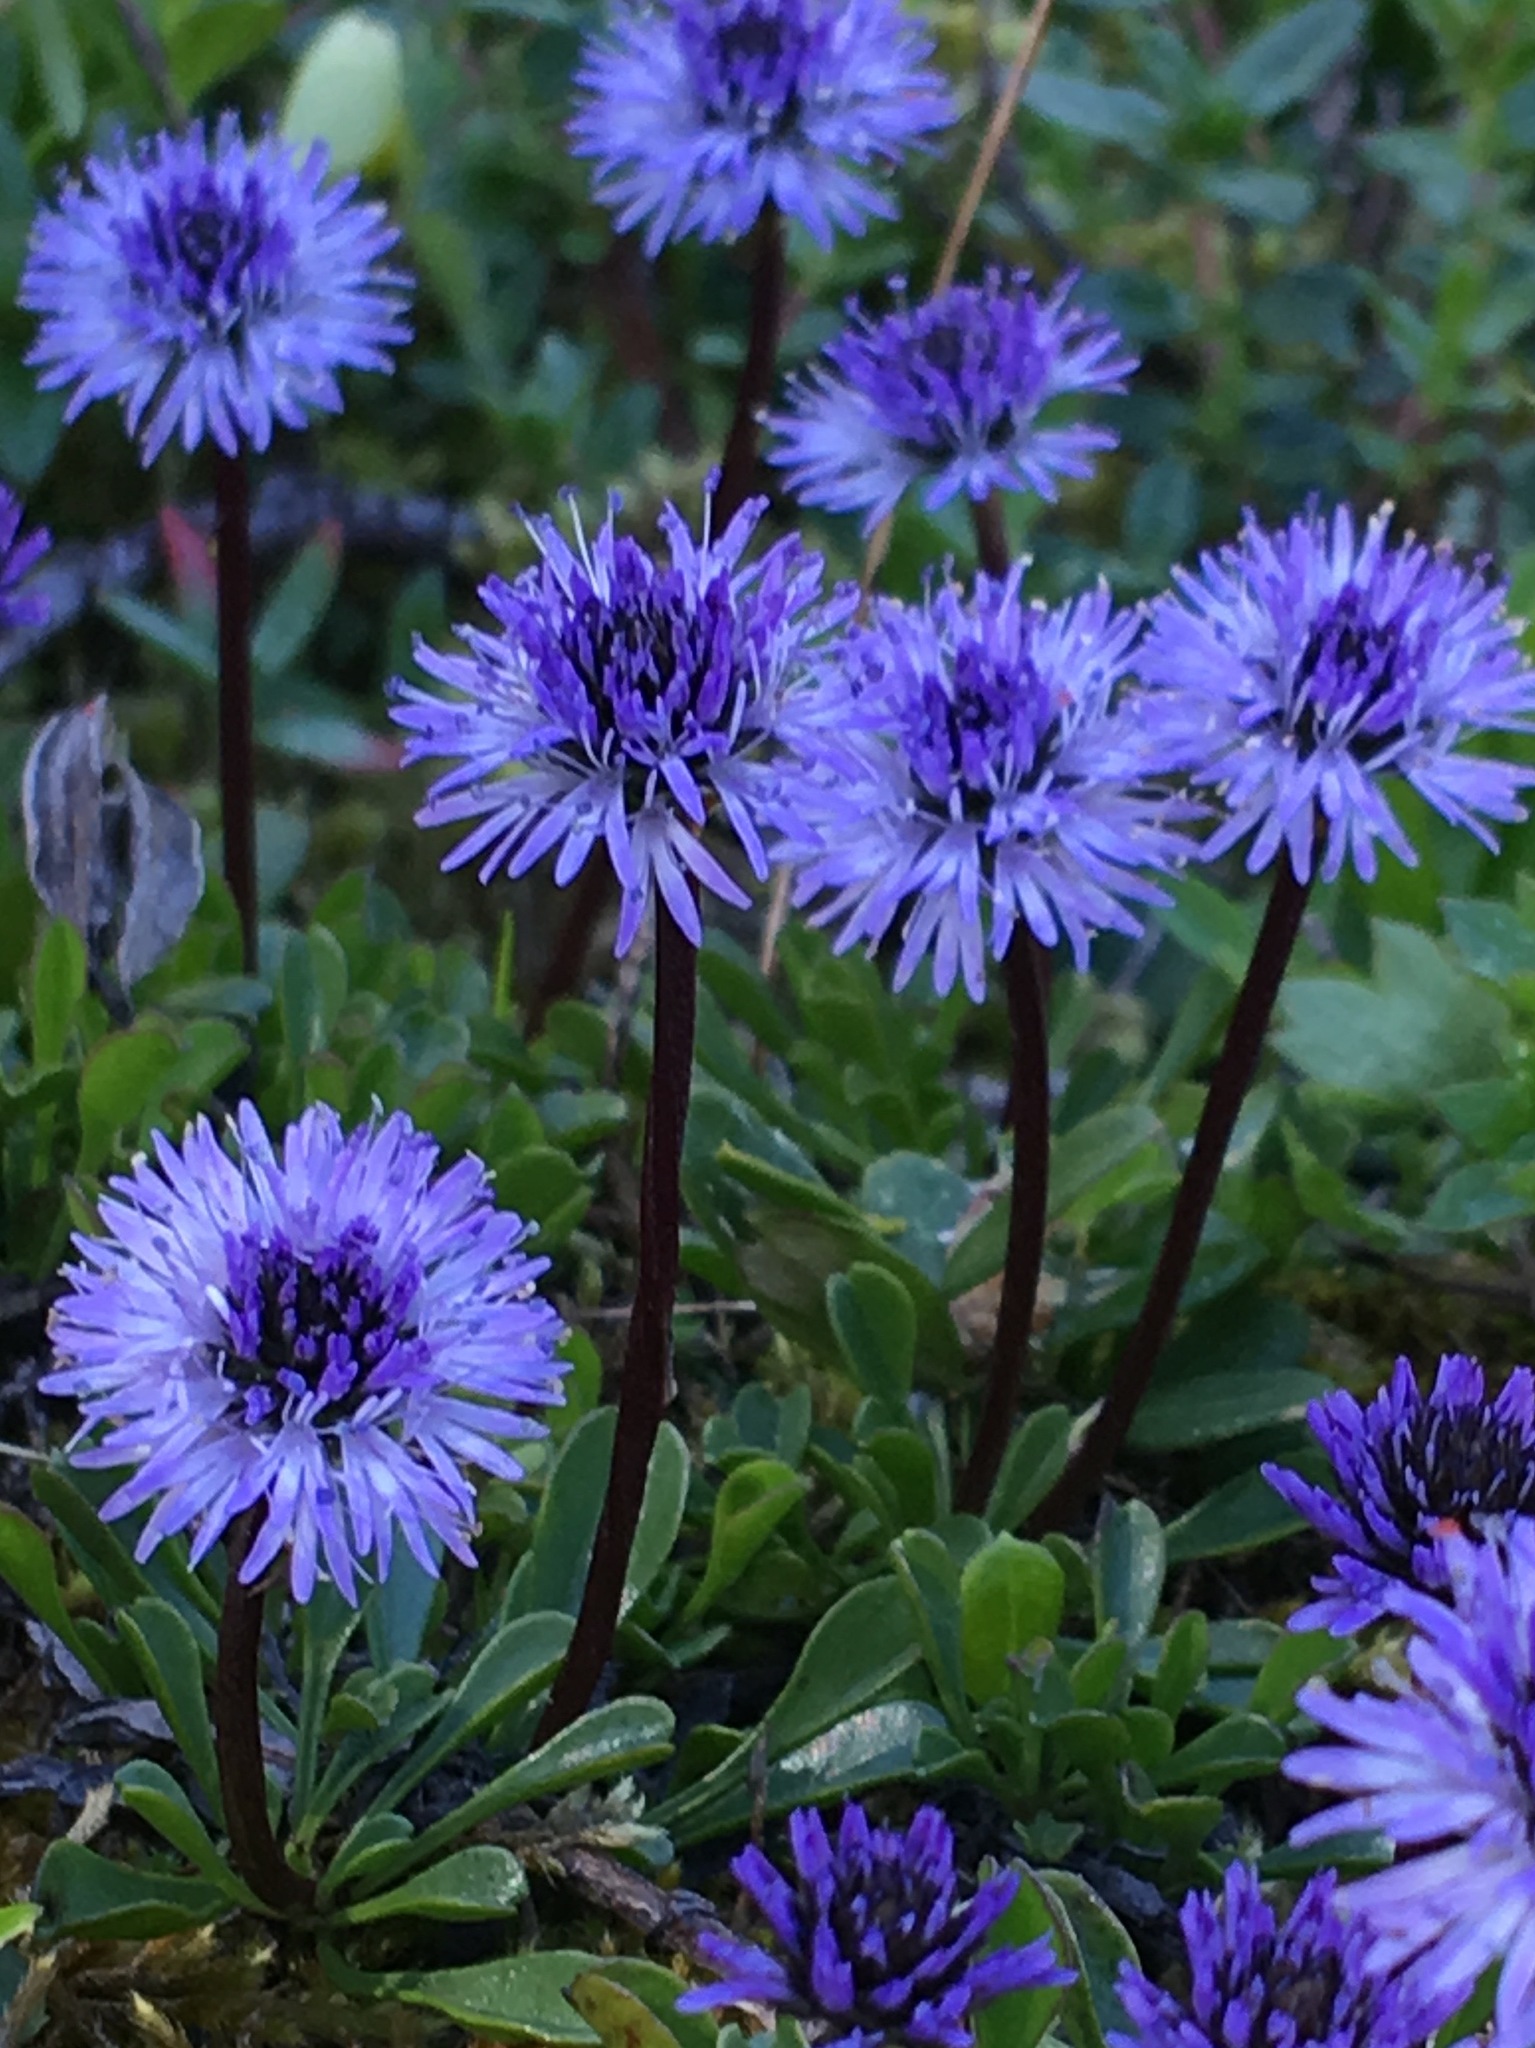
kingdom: Plantae
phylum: Tracheophyta
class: Magnoliopsida
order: Lamiales
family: Plantaginaceae
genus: Globularia
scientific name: Globularia cordifolia
